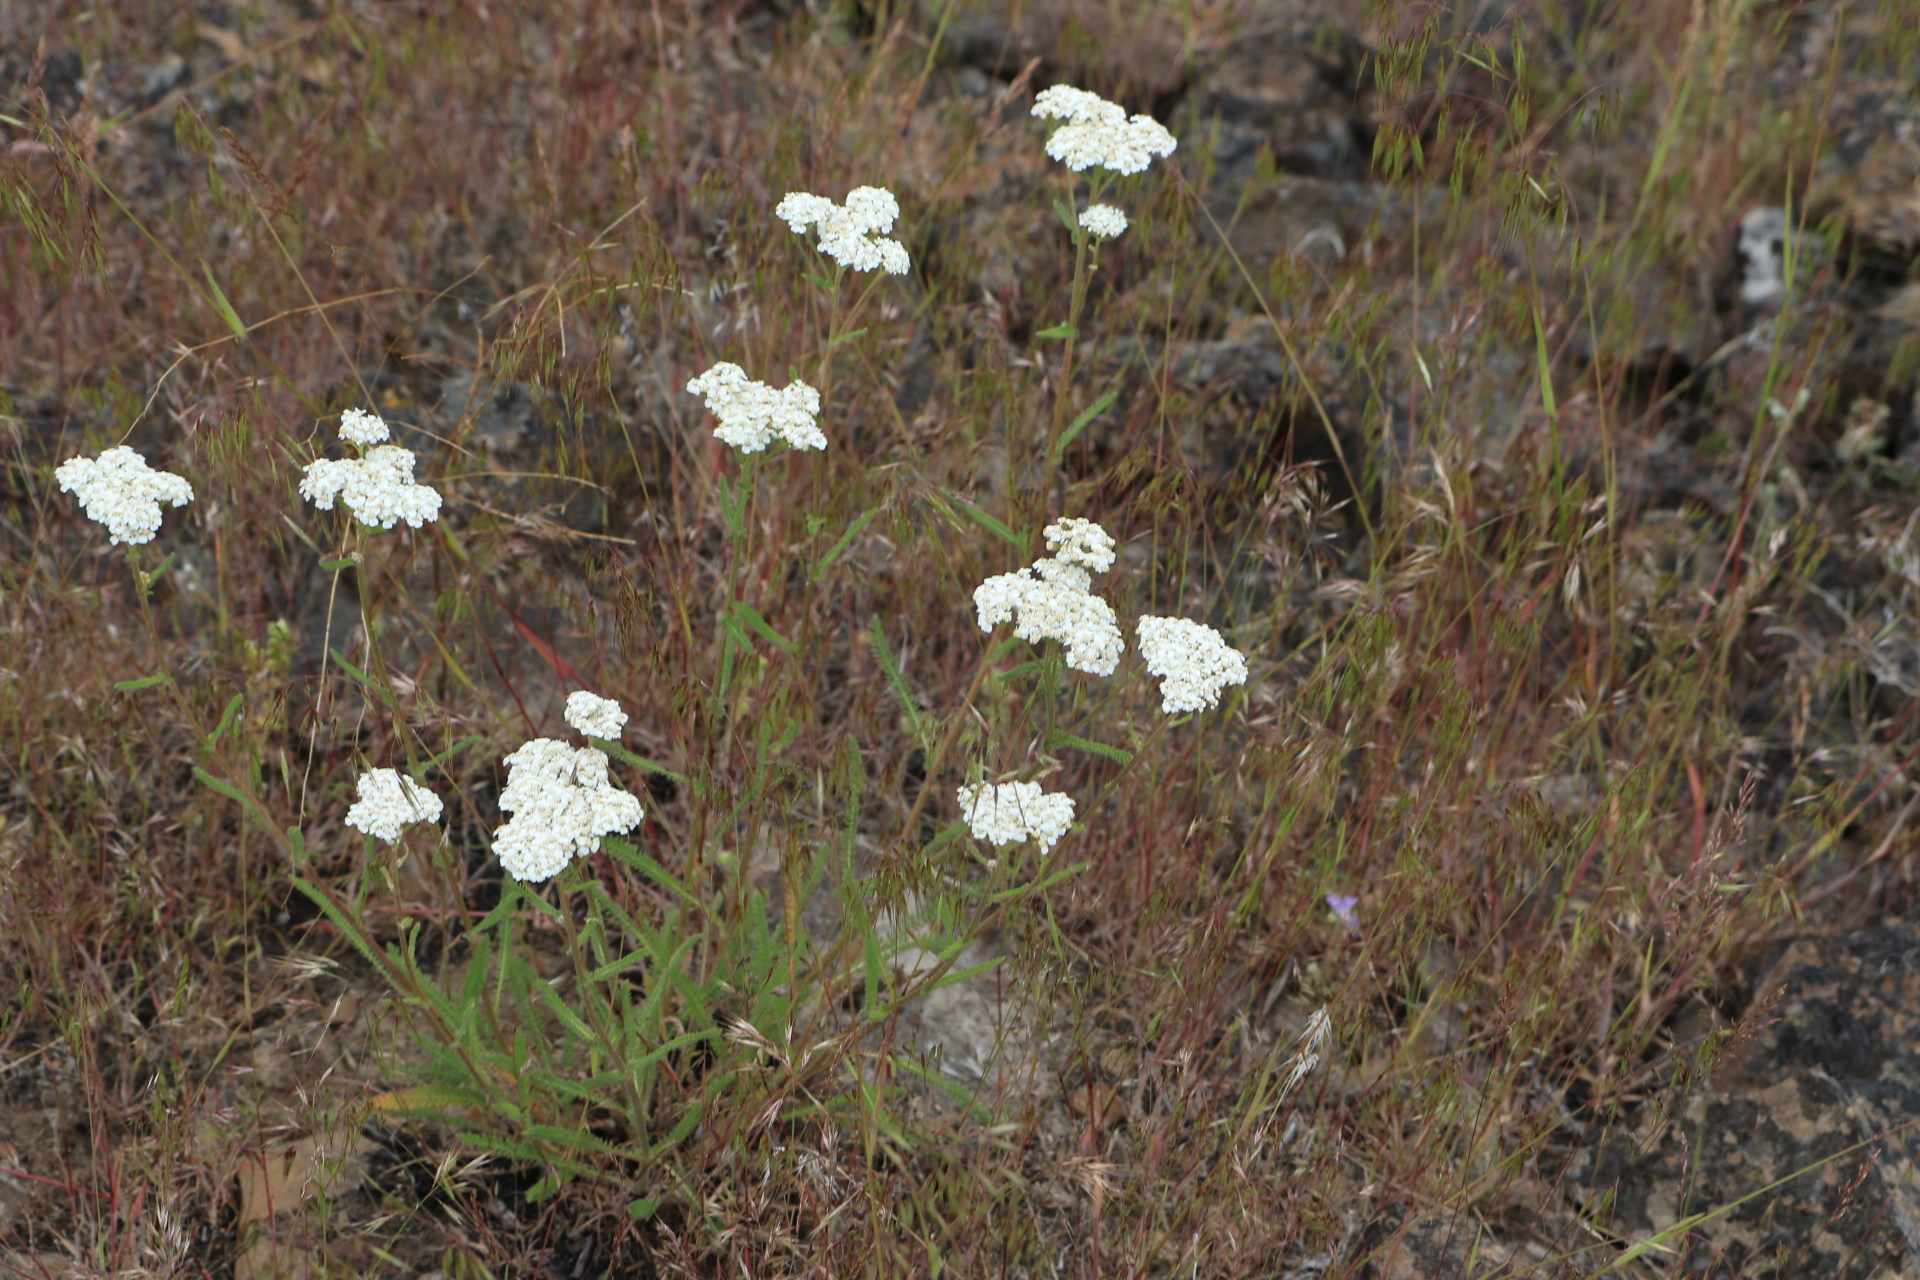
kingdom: Plantae
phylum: Tracheophyta
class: Magnoliopsida
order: Asterales
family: Asteraceae
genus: Achillea
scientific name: Achillea millefolium
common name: Yarrow
